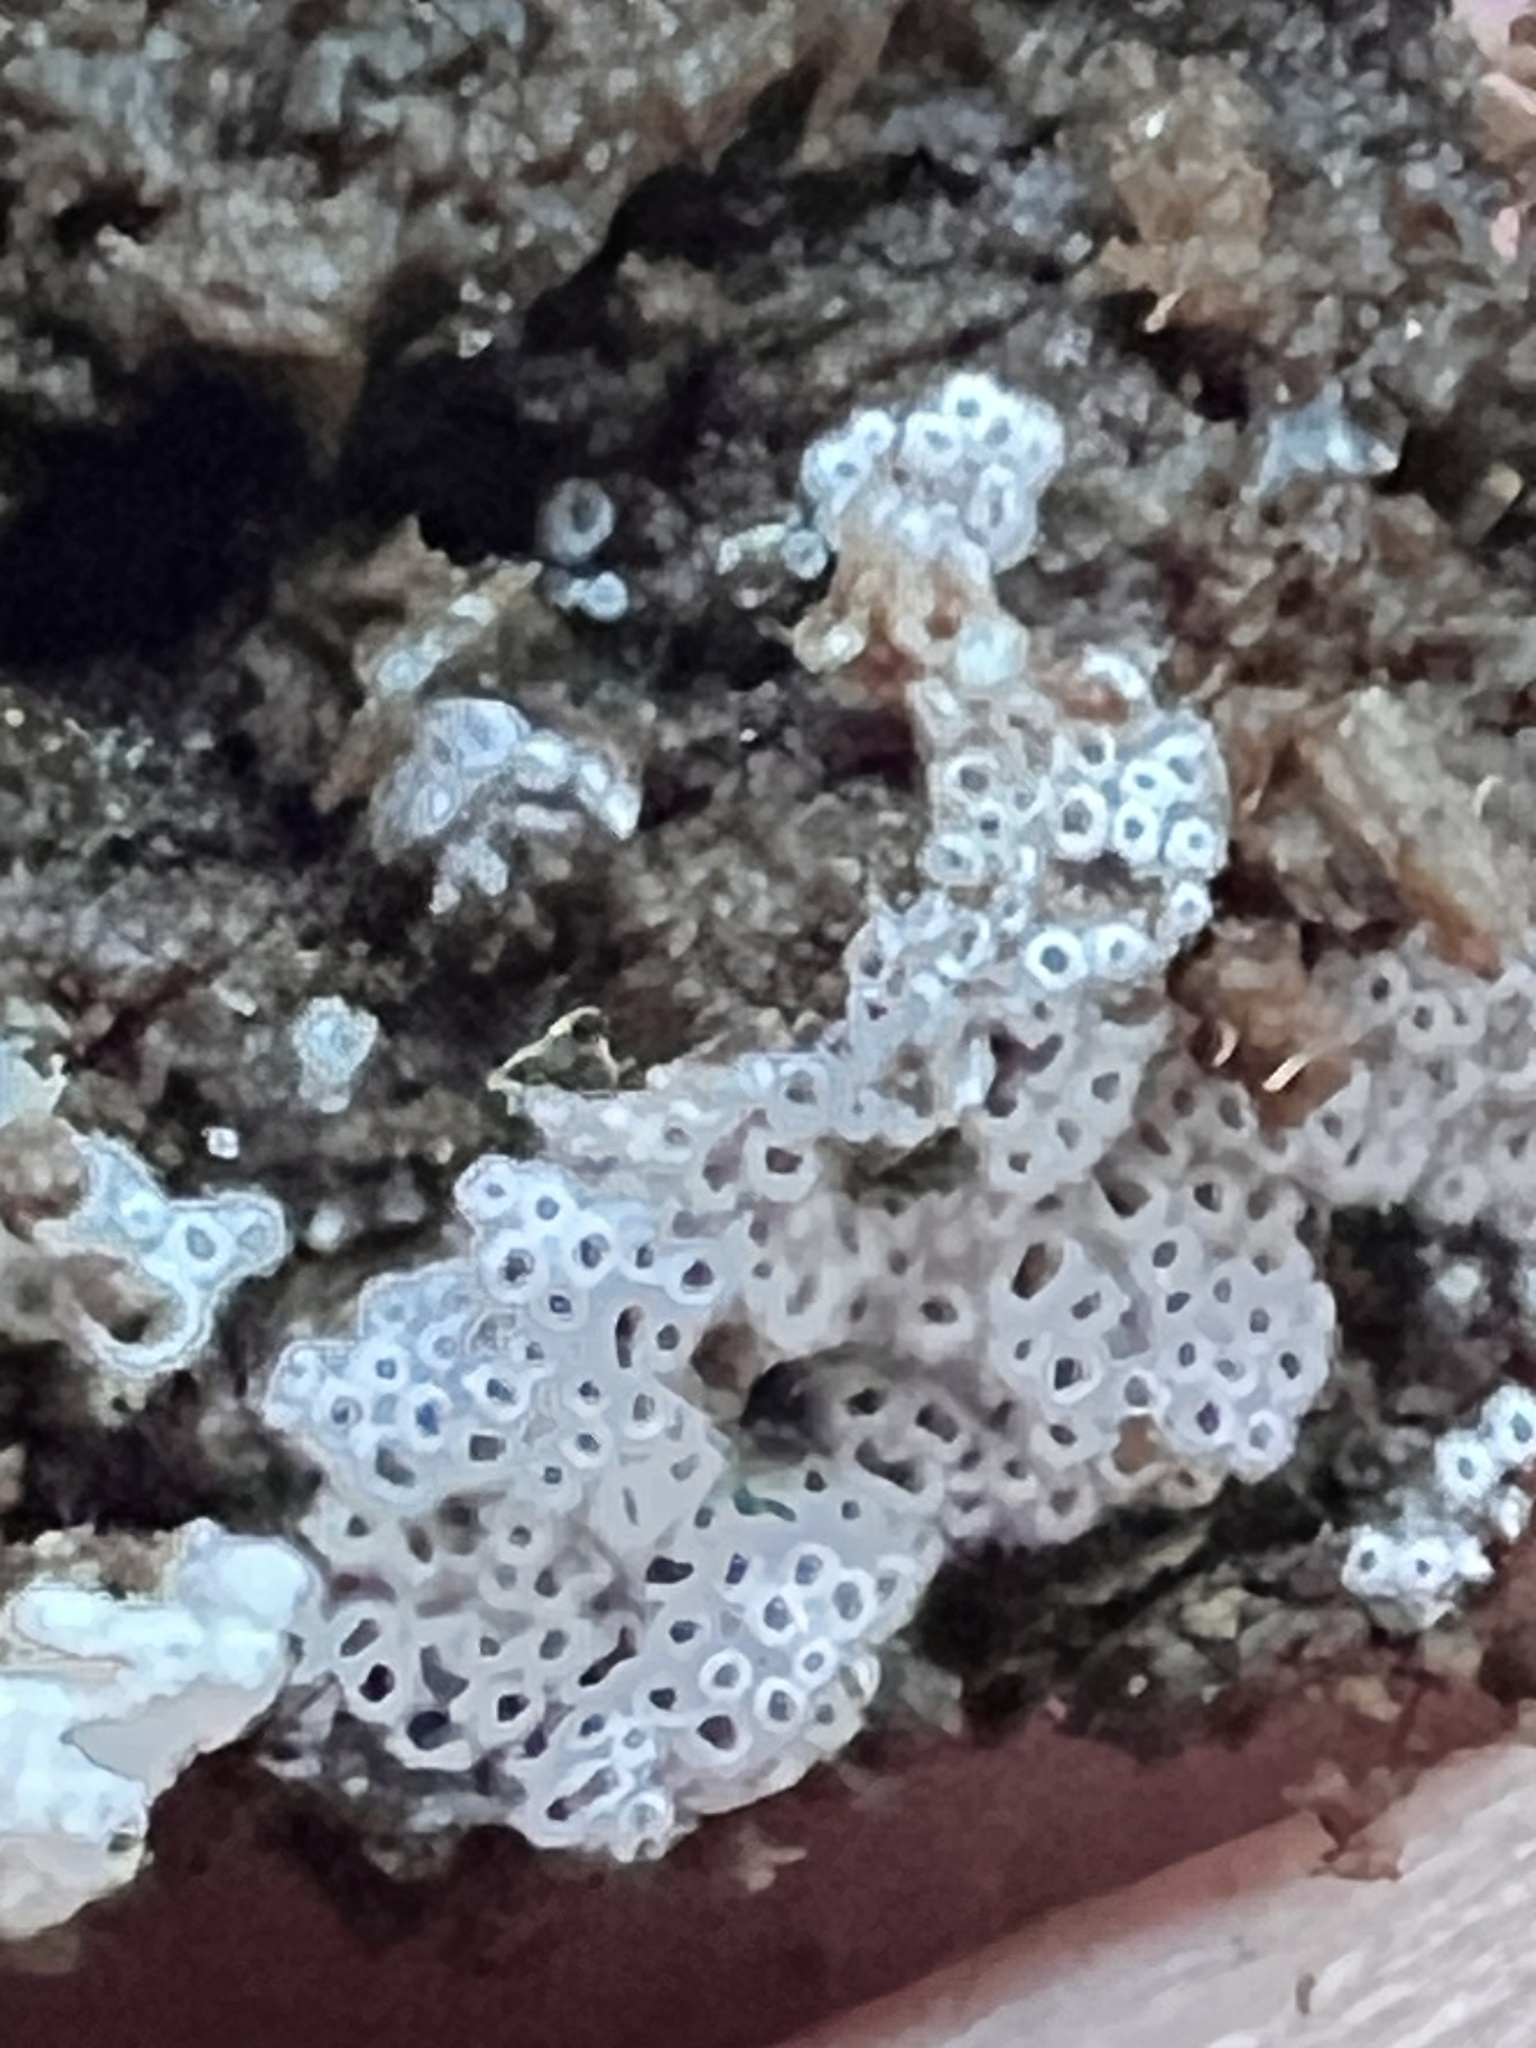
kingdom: Fungi
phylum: Basidiomycota
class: Agaricomycetes
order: Agaricales
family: Marasmiaceae
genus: Henningsomyces
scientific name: Henningsomyces candidus
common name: White tubelet
